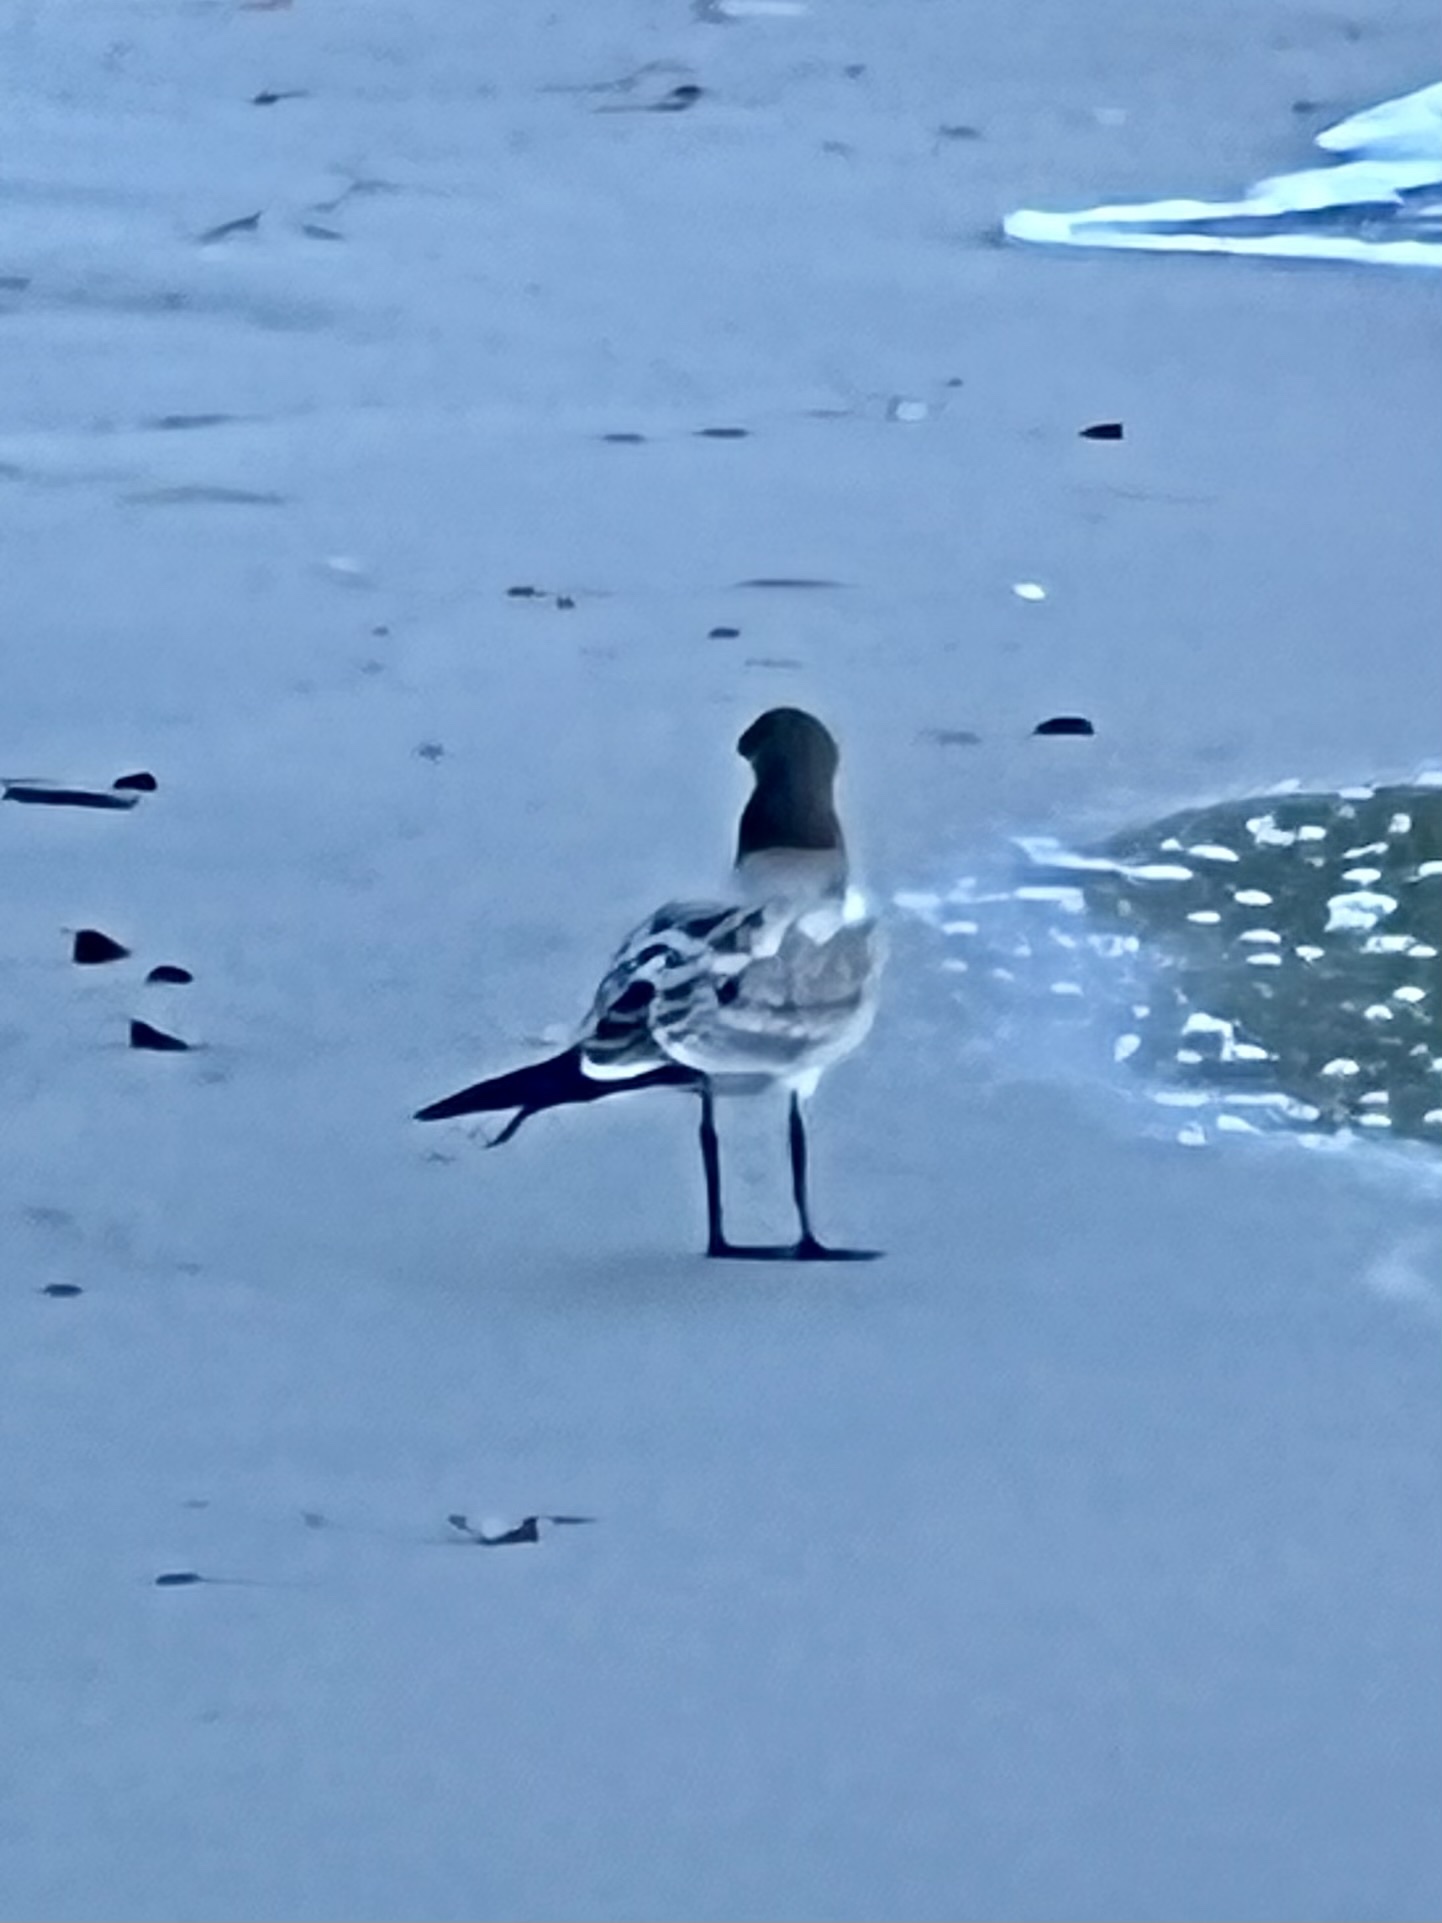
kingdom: Animalia
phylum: Chordata
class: Aves
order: Charadriiformes
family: Laridae
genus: Leucophaeus
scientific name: Leucophaeus atricilla
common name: Laughing gull
